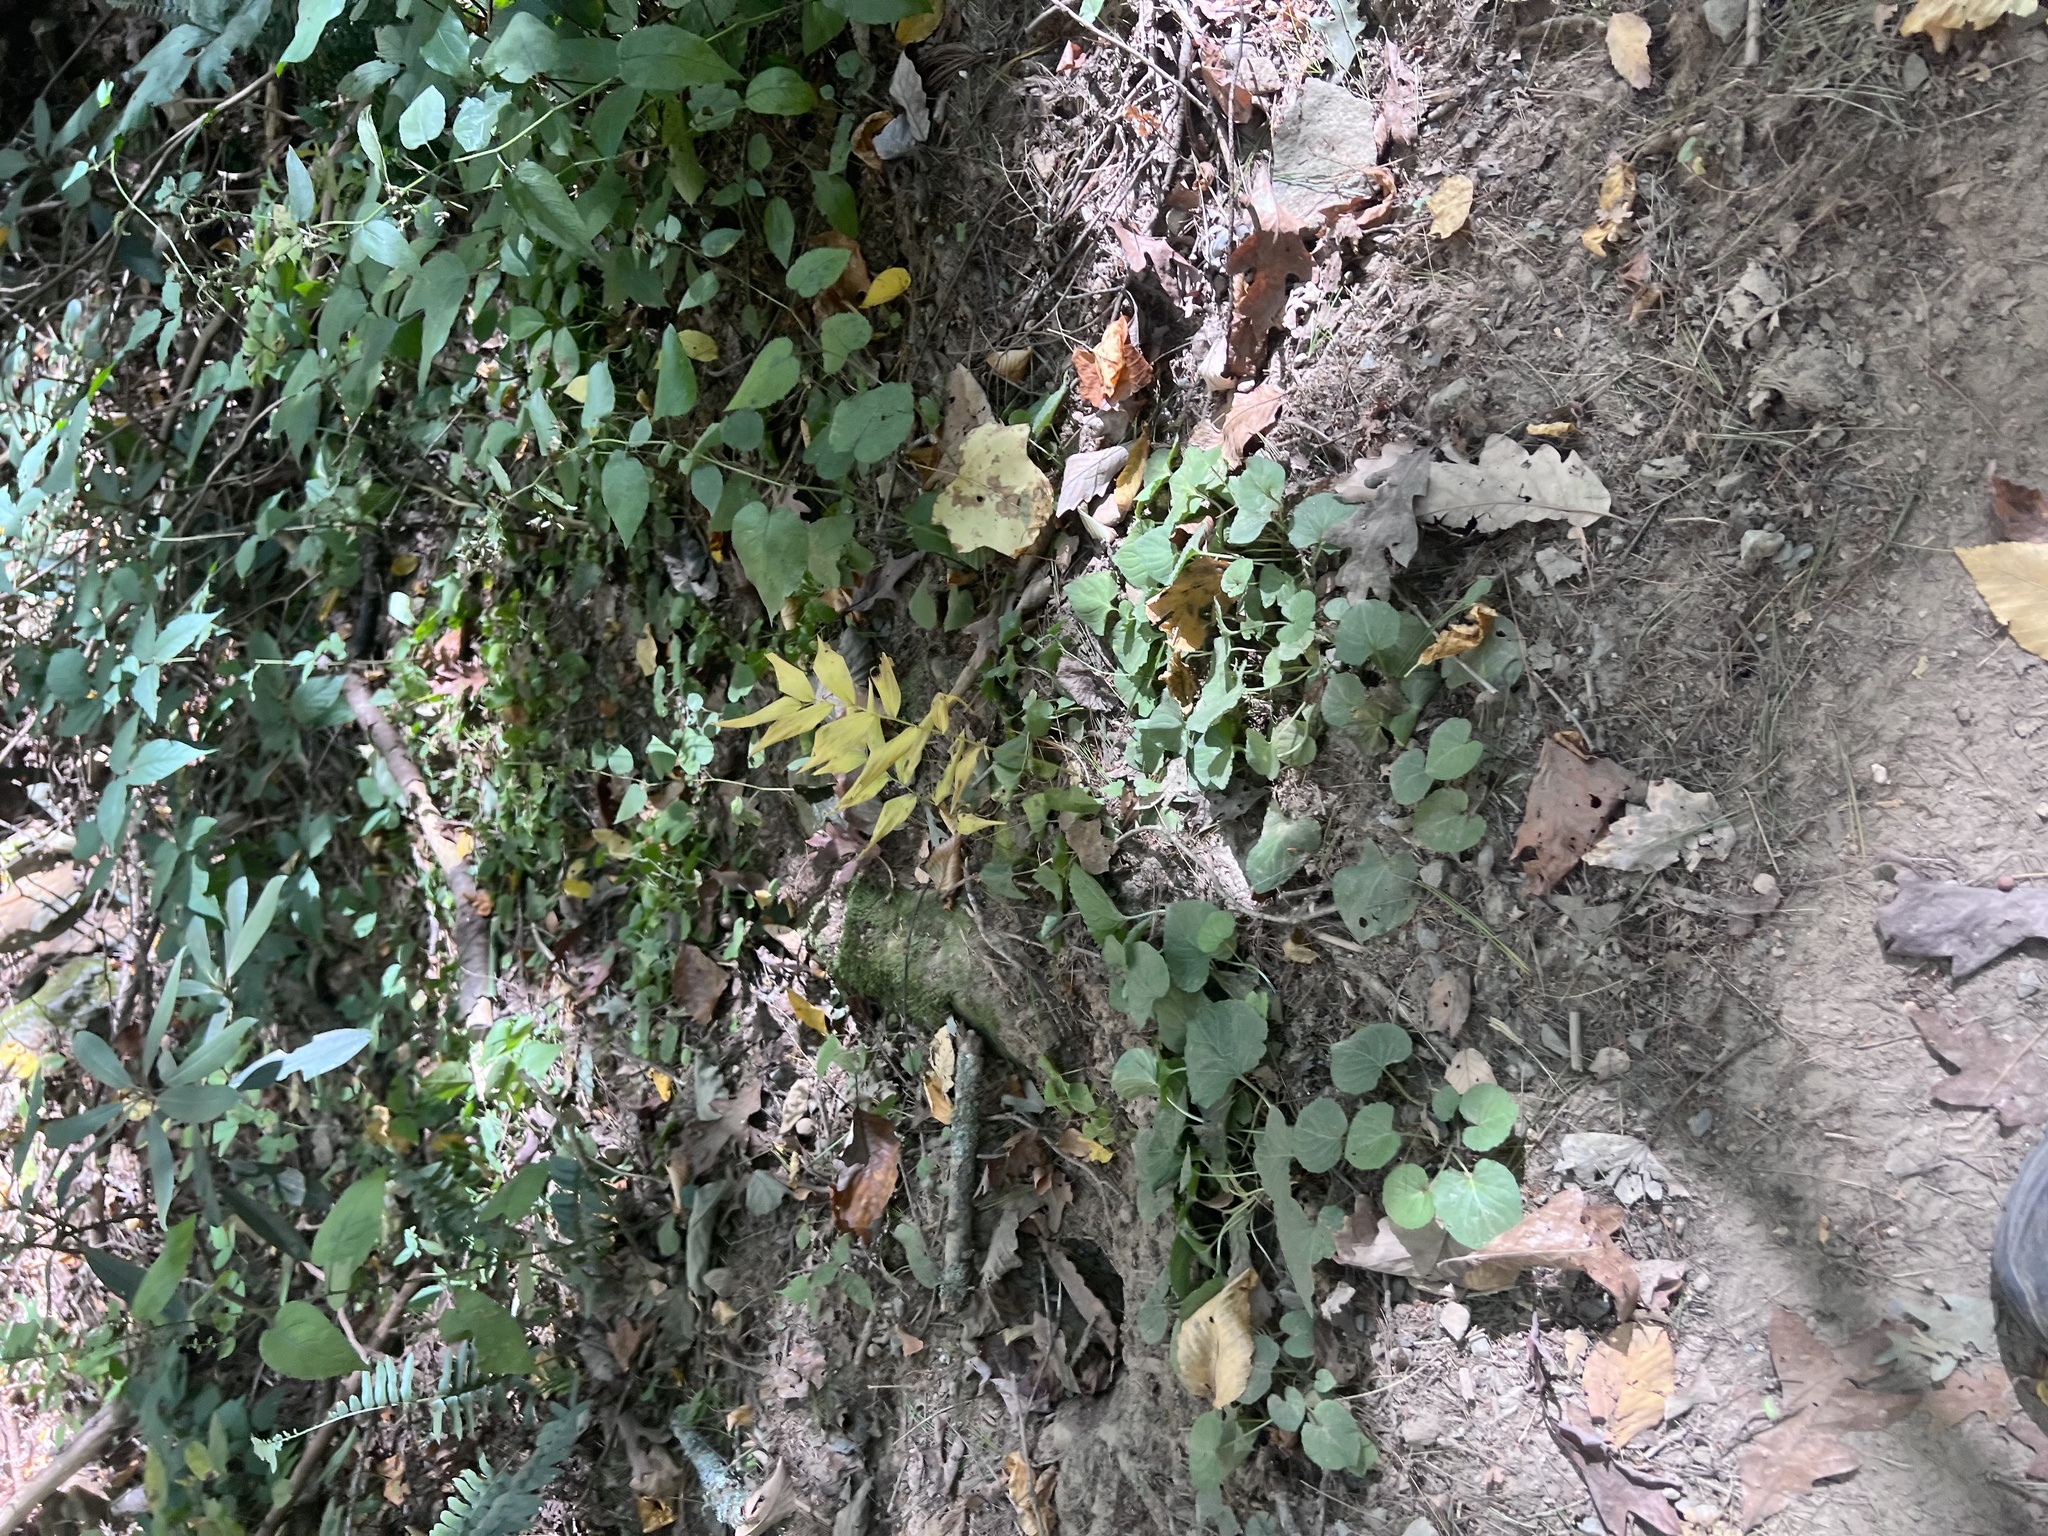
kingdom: Plantae
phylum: Tracheophyta
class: Liliopsida
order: Asparagales
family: Asparagaceae
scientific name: Asparagaceae
